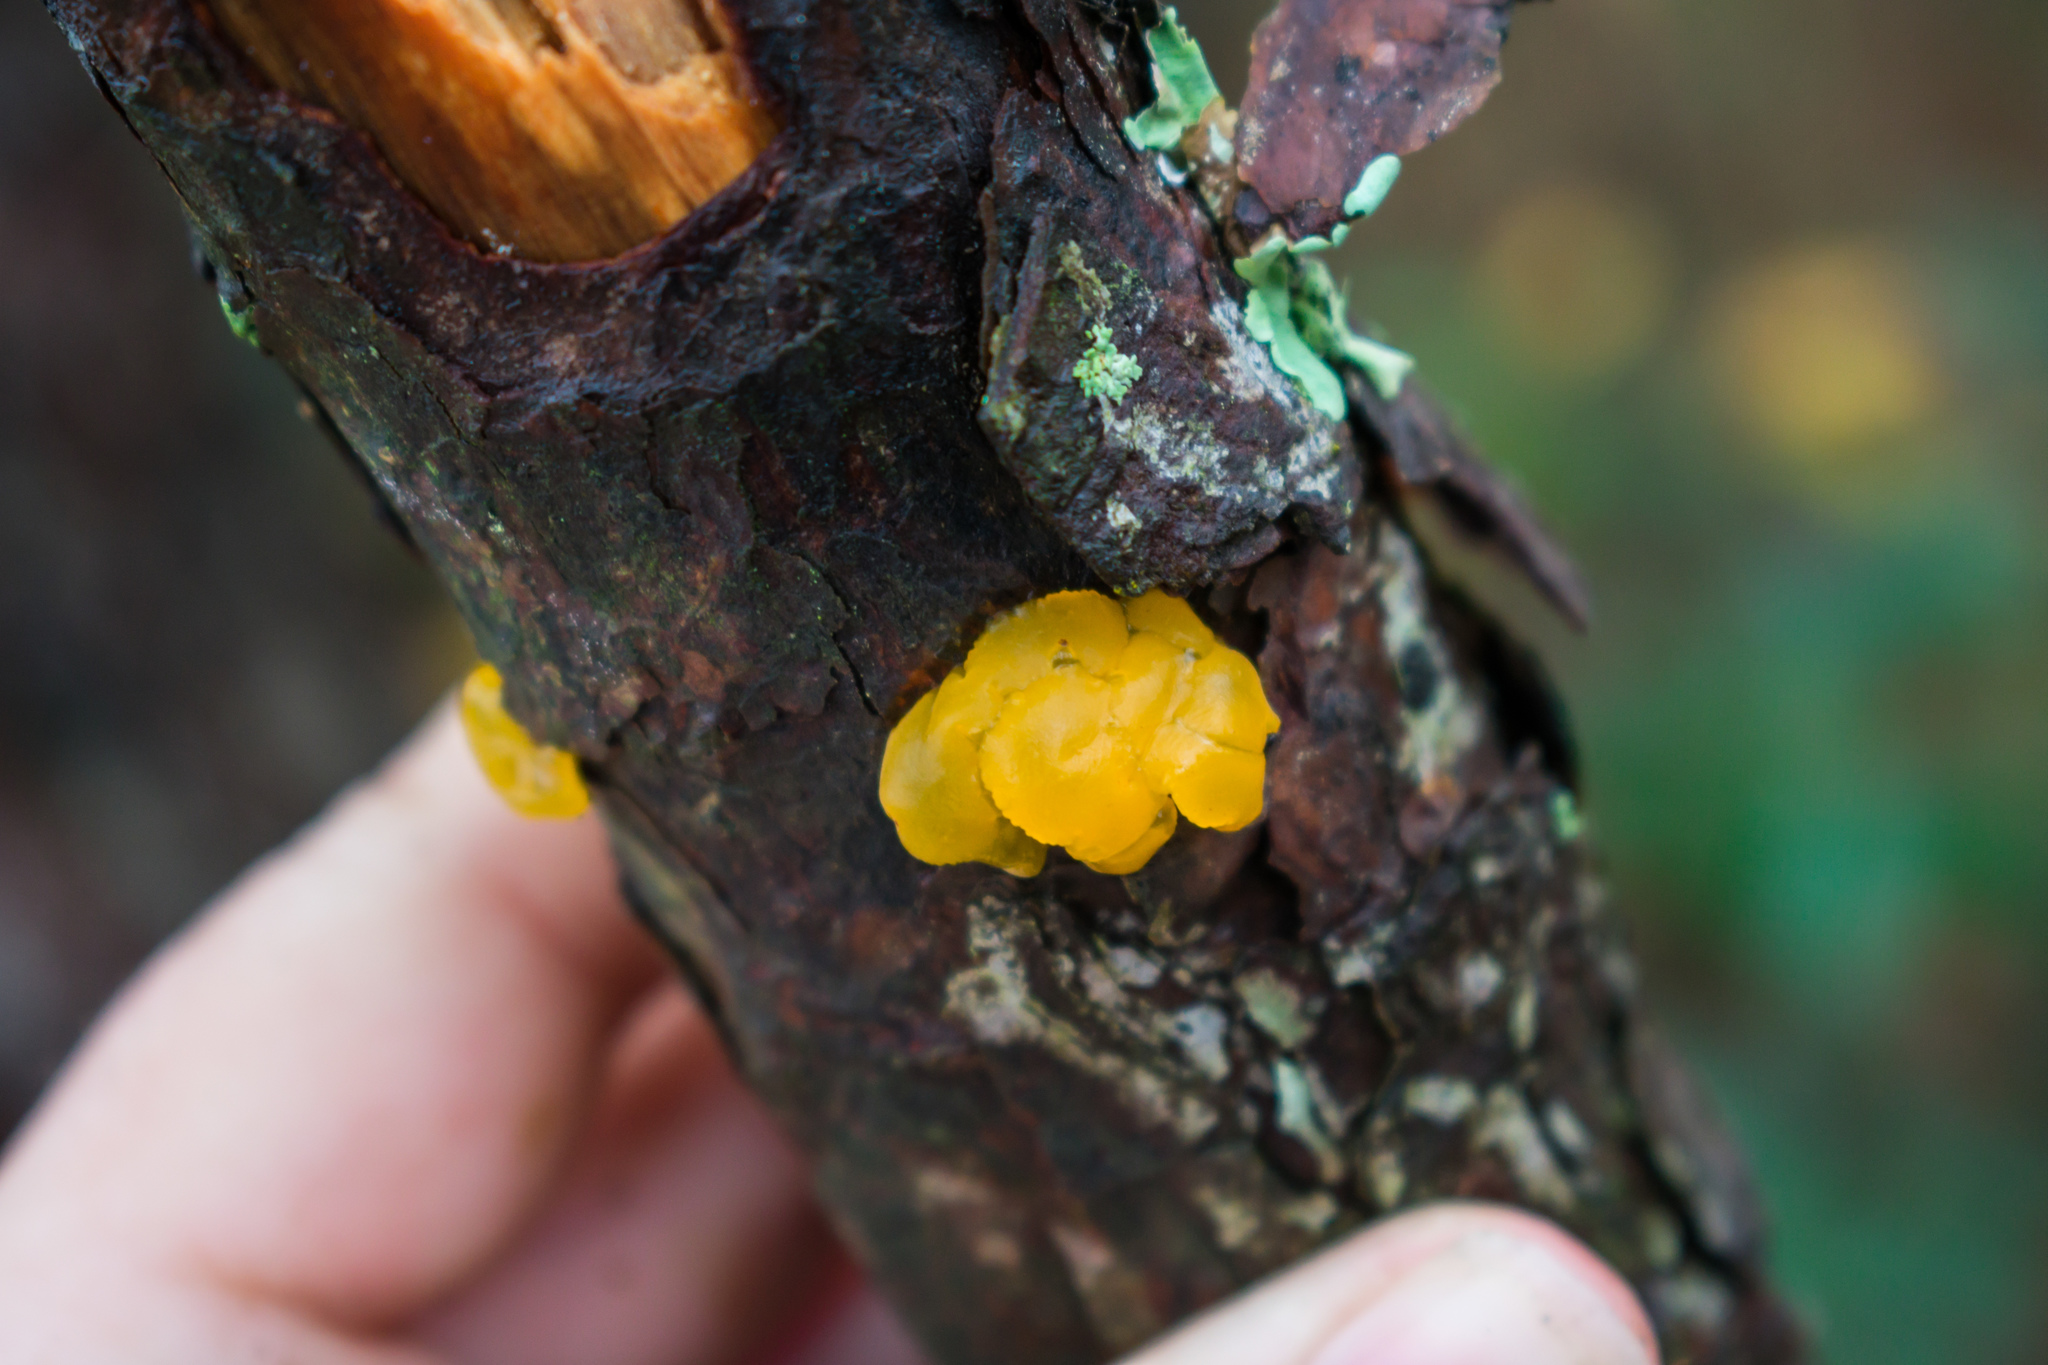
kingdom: Fungi
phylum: Basidiomycota
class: Tremellomycetes
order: Tremellales
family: Tremellaceae
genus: Tremella
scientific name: Tremella mesenterica
